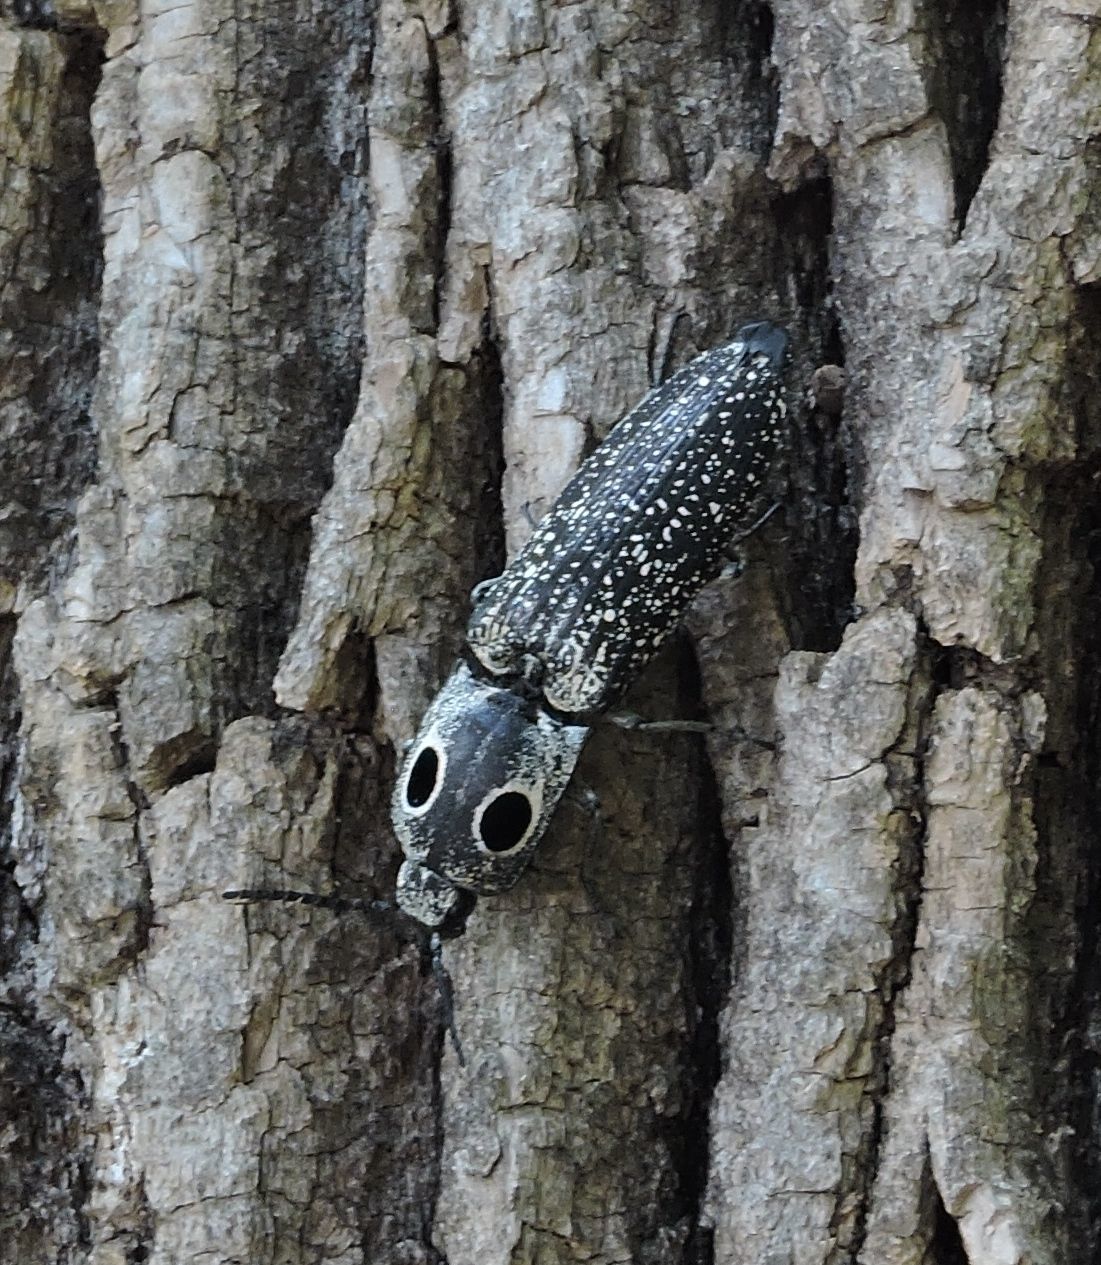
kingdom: Animalia
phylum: Arthropoda
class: Insecta
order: Coleoptera
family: Elateridae
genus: Alaus
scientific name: Alaus oculatus
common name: Eastern eyed click beetle
